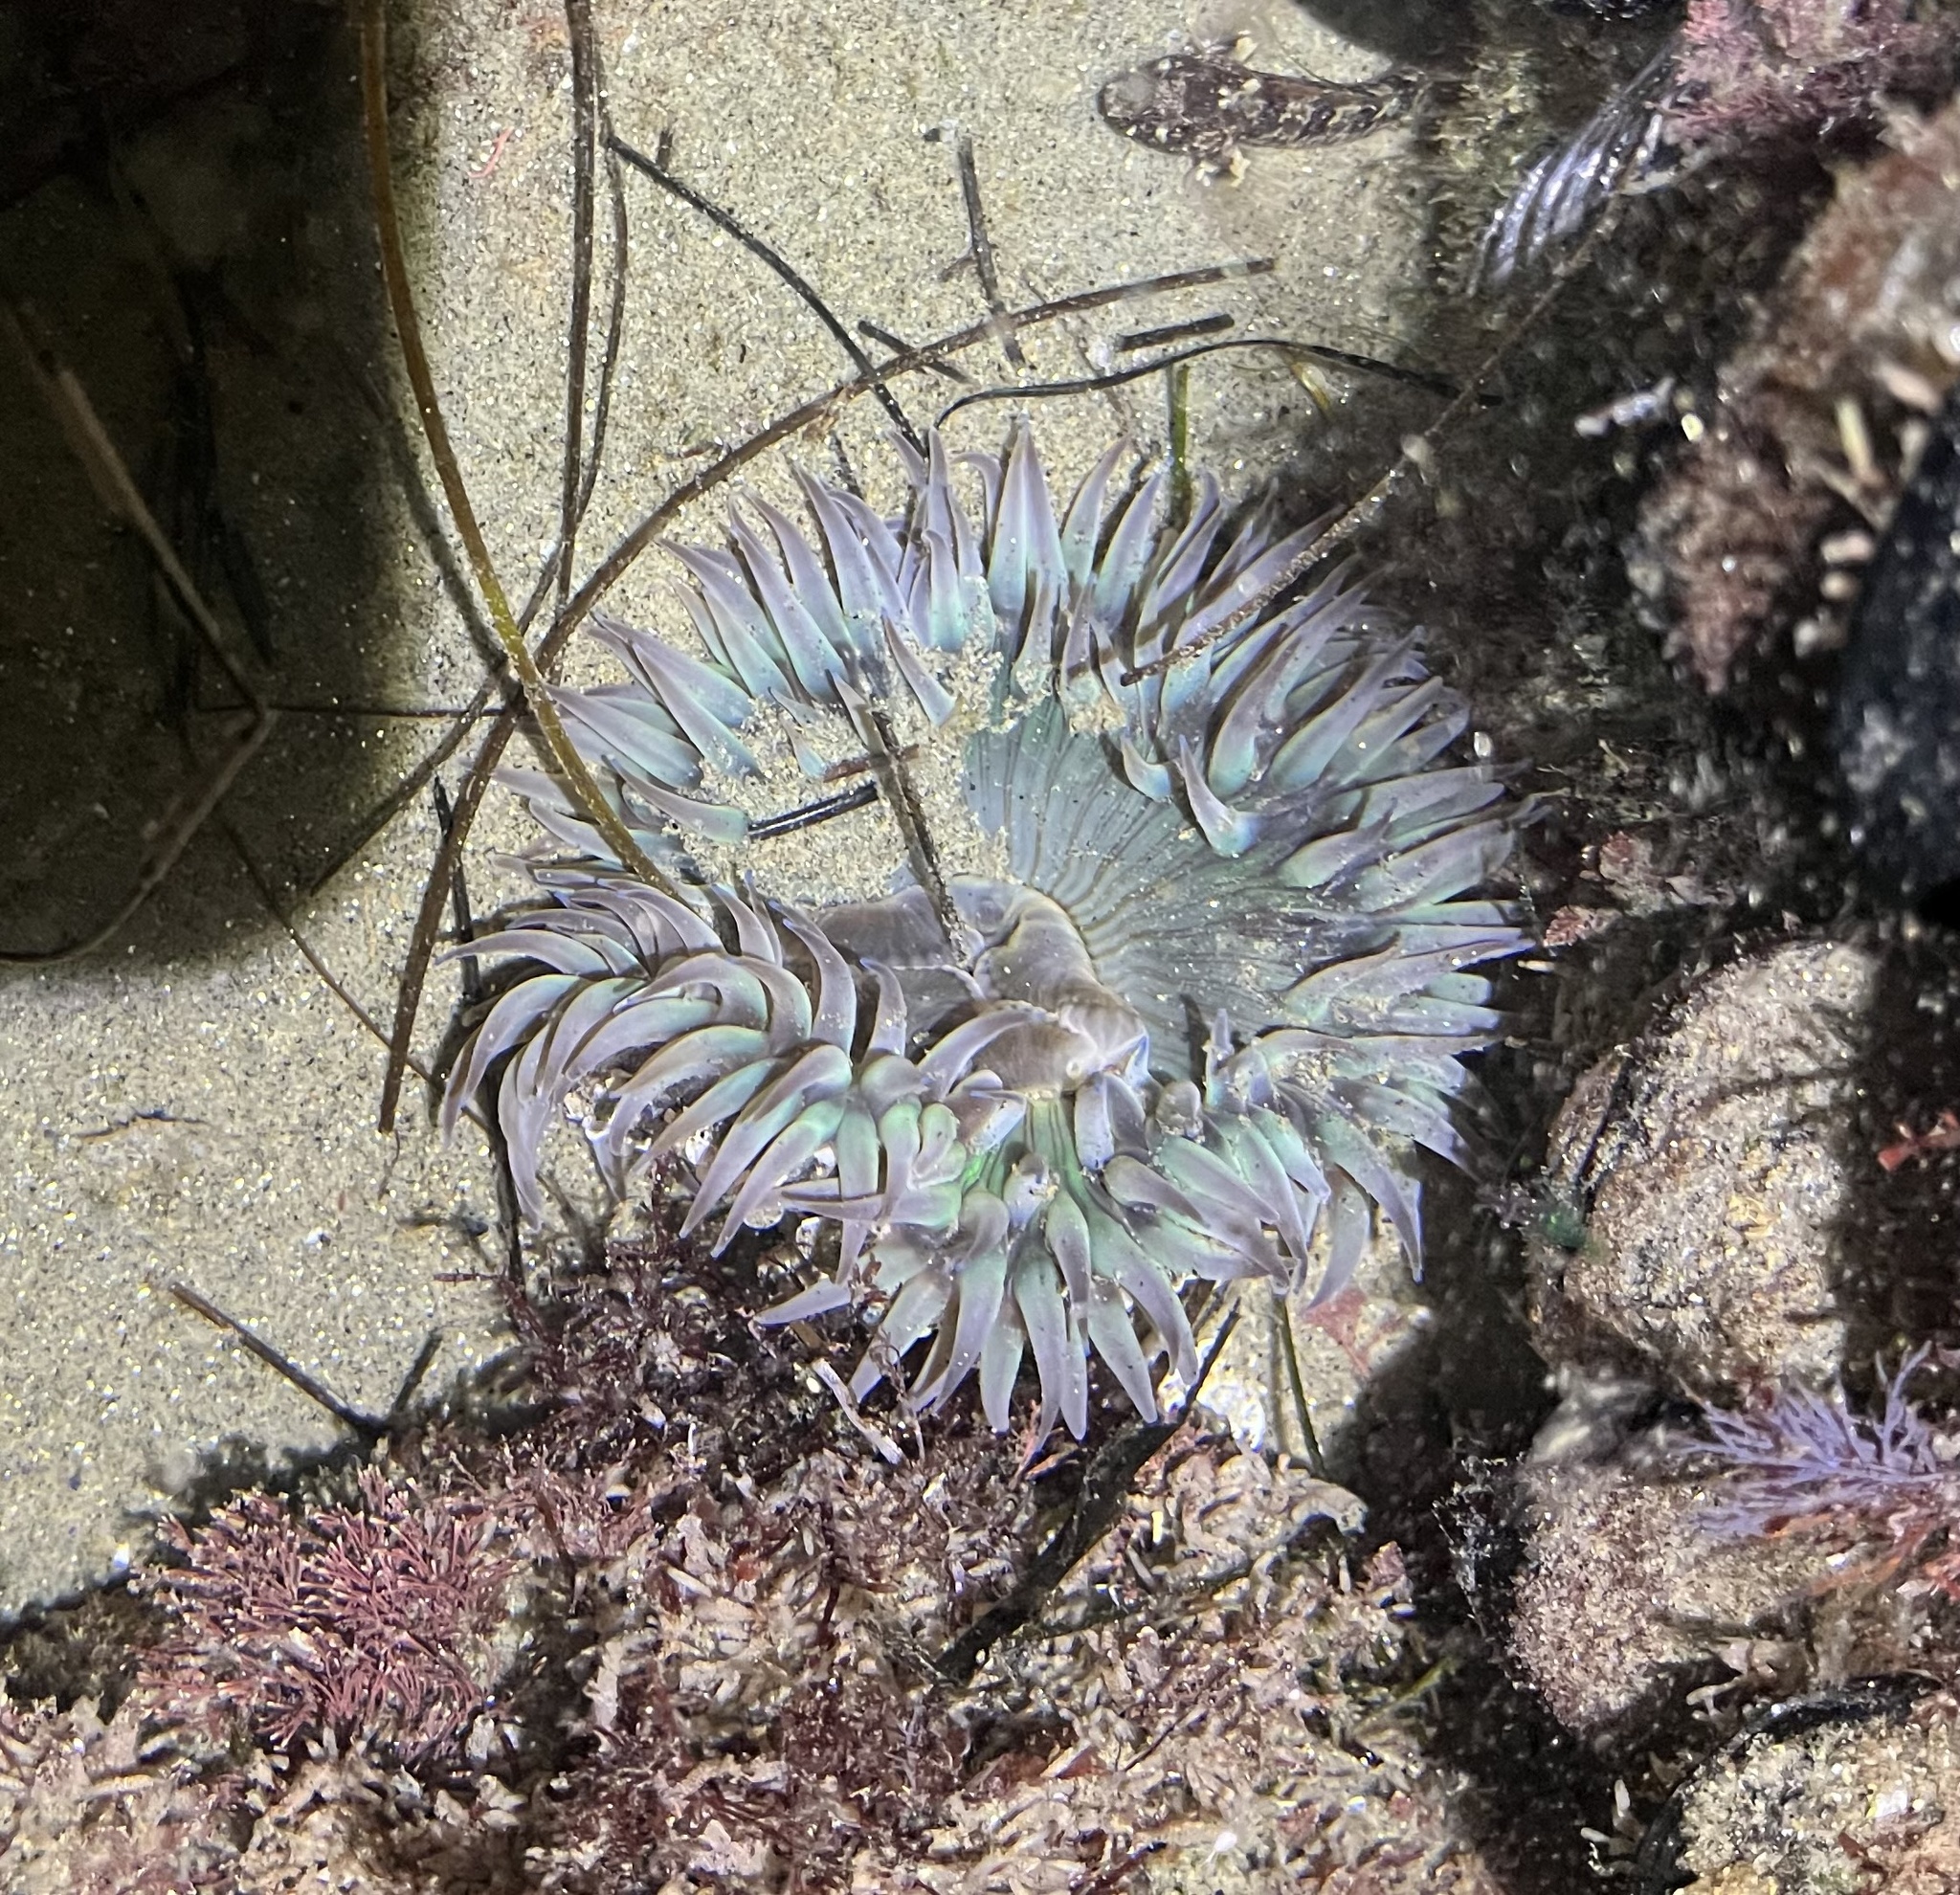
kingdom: Animalia
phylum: Cnidaria
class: Anthozoa
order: Actiniaria
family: Actiniidae
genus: Anthopleura
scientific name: Anthopleura sola
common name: Sun anemone
